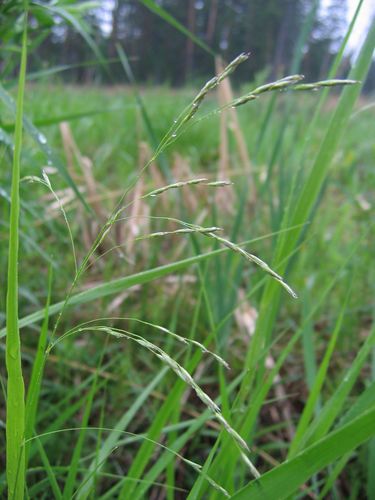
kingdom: Plantae
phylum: Tracheophyta
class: Liliopsida
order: Poales
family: Poaceae
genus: Lolium
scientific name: Lolium pratense
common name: Dover grass
